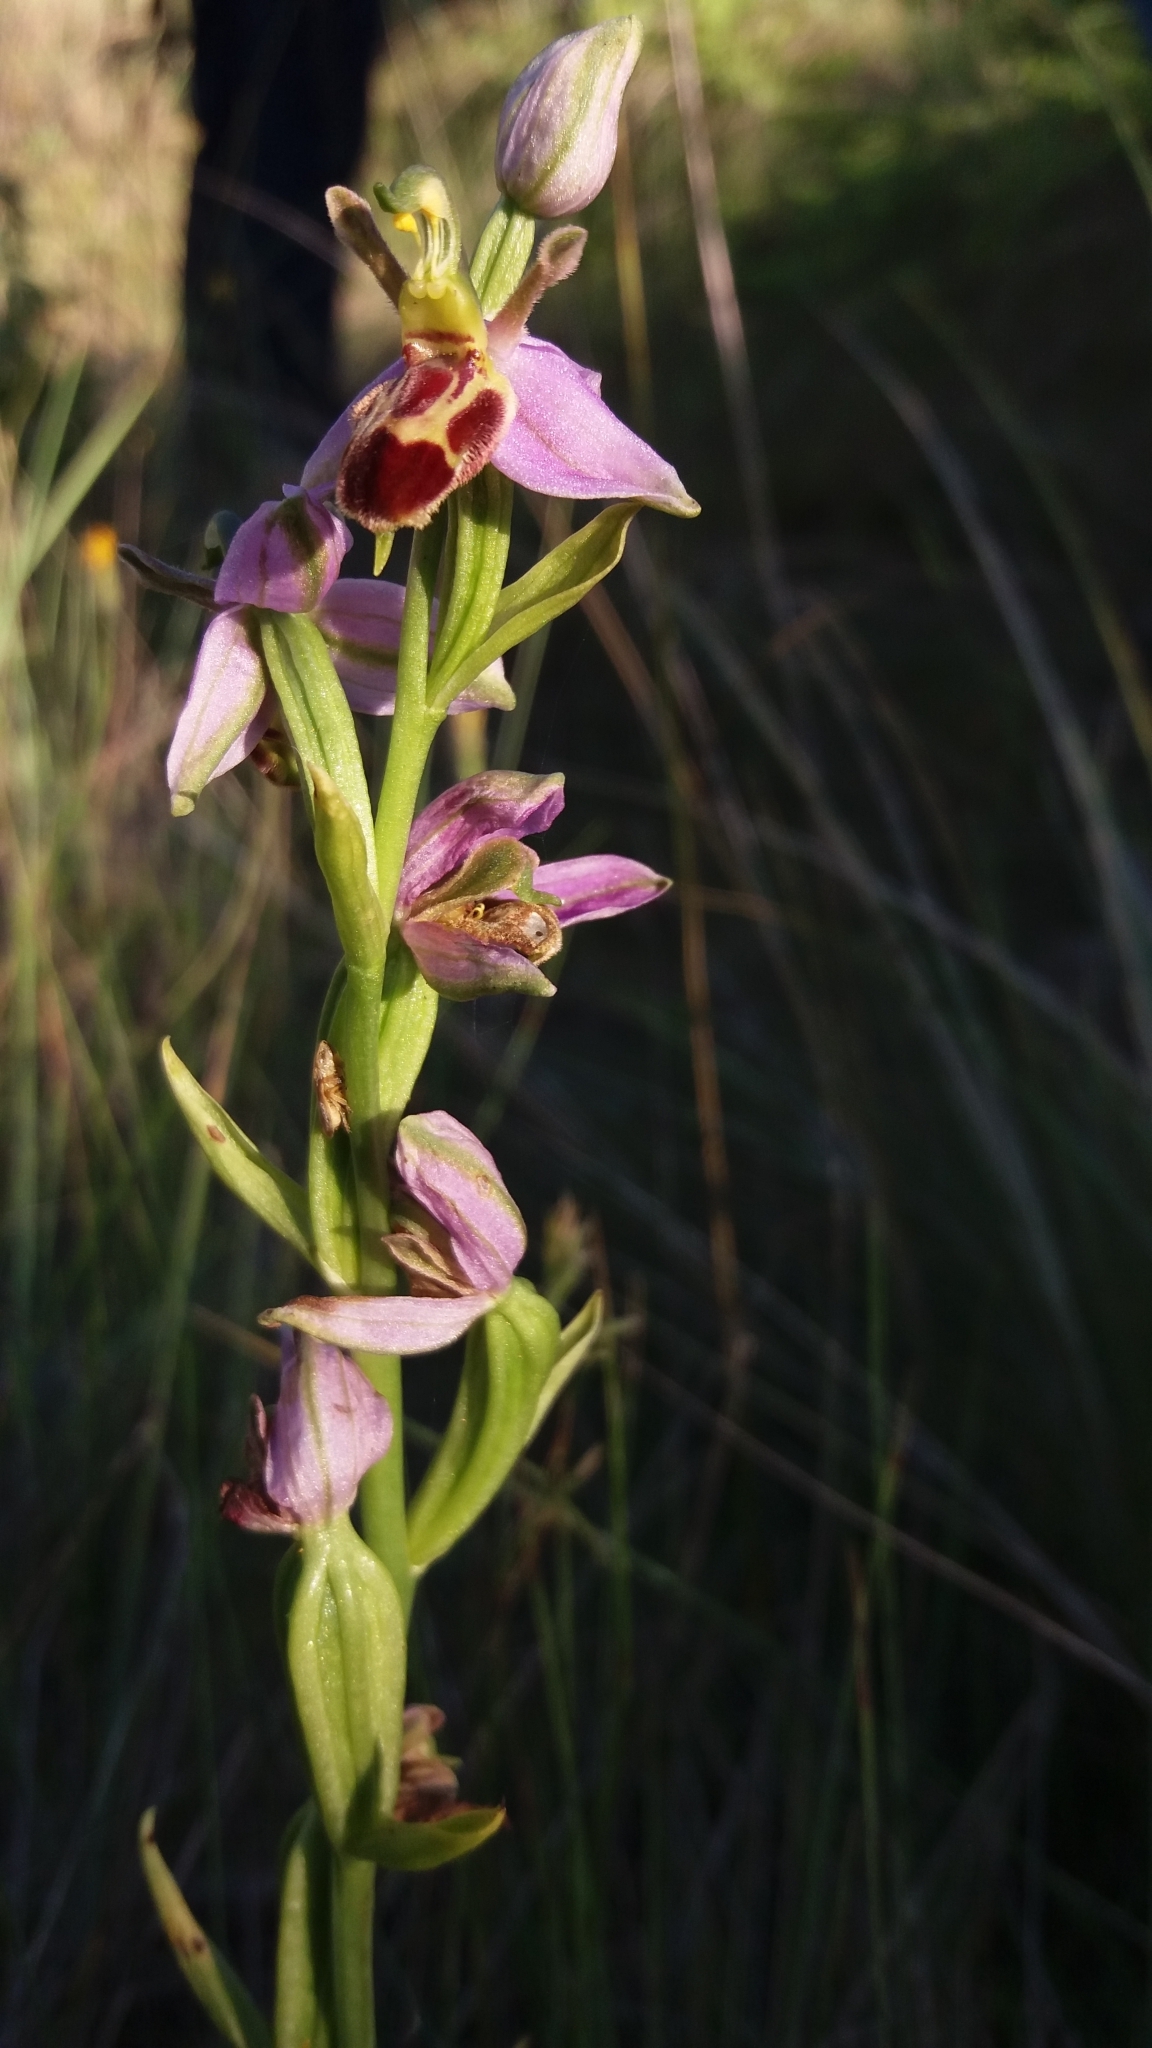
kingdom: Plantae
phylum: Tracheophyta
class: Liliopsida
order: Asparagales
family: Orchidaceae
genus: Ophrys
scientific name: Ophrys apifera
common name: Bee orchid
